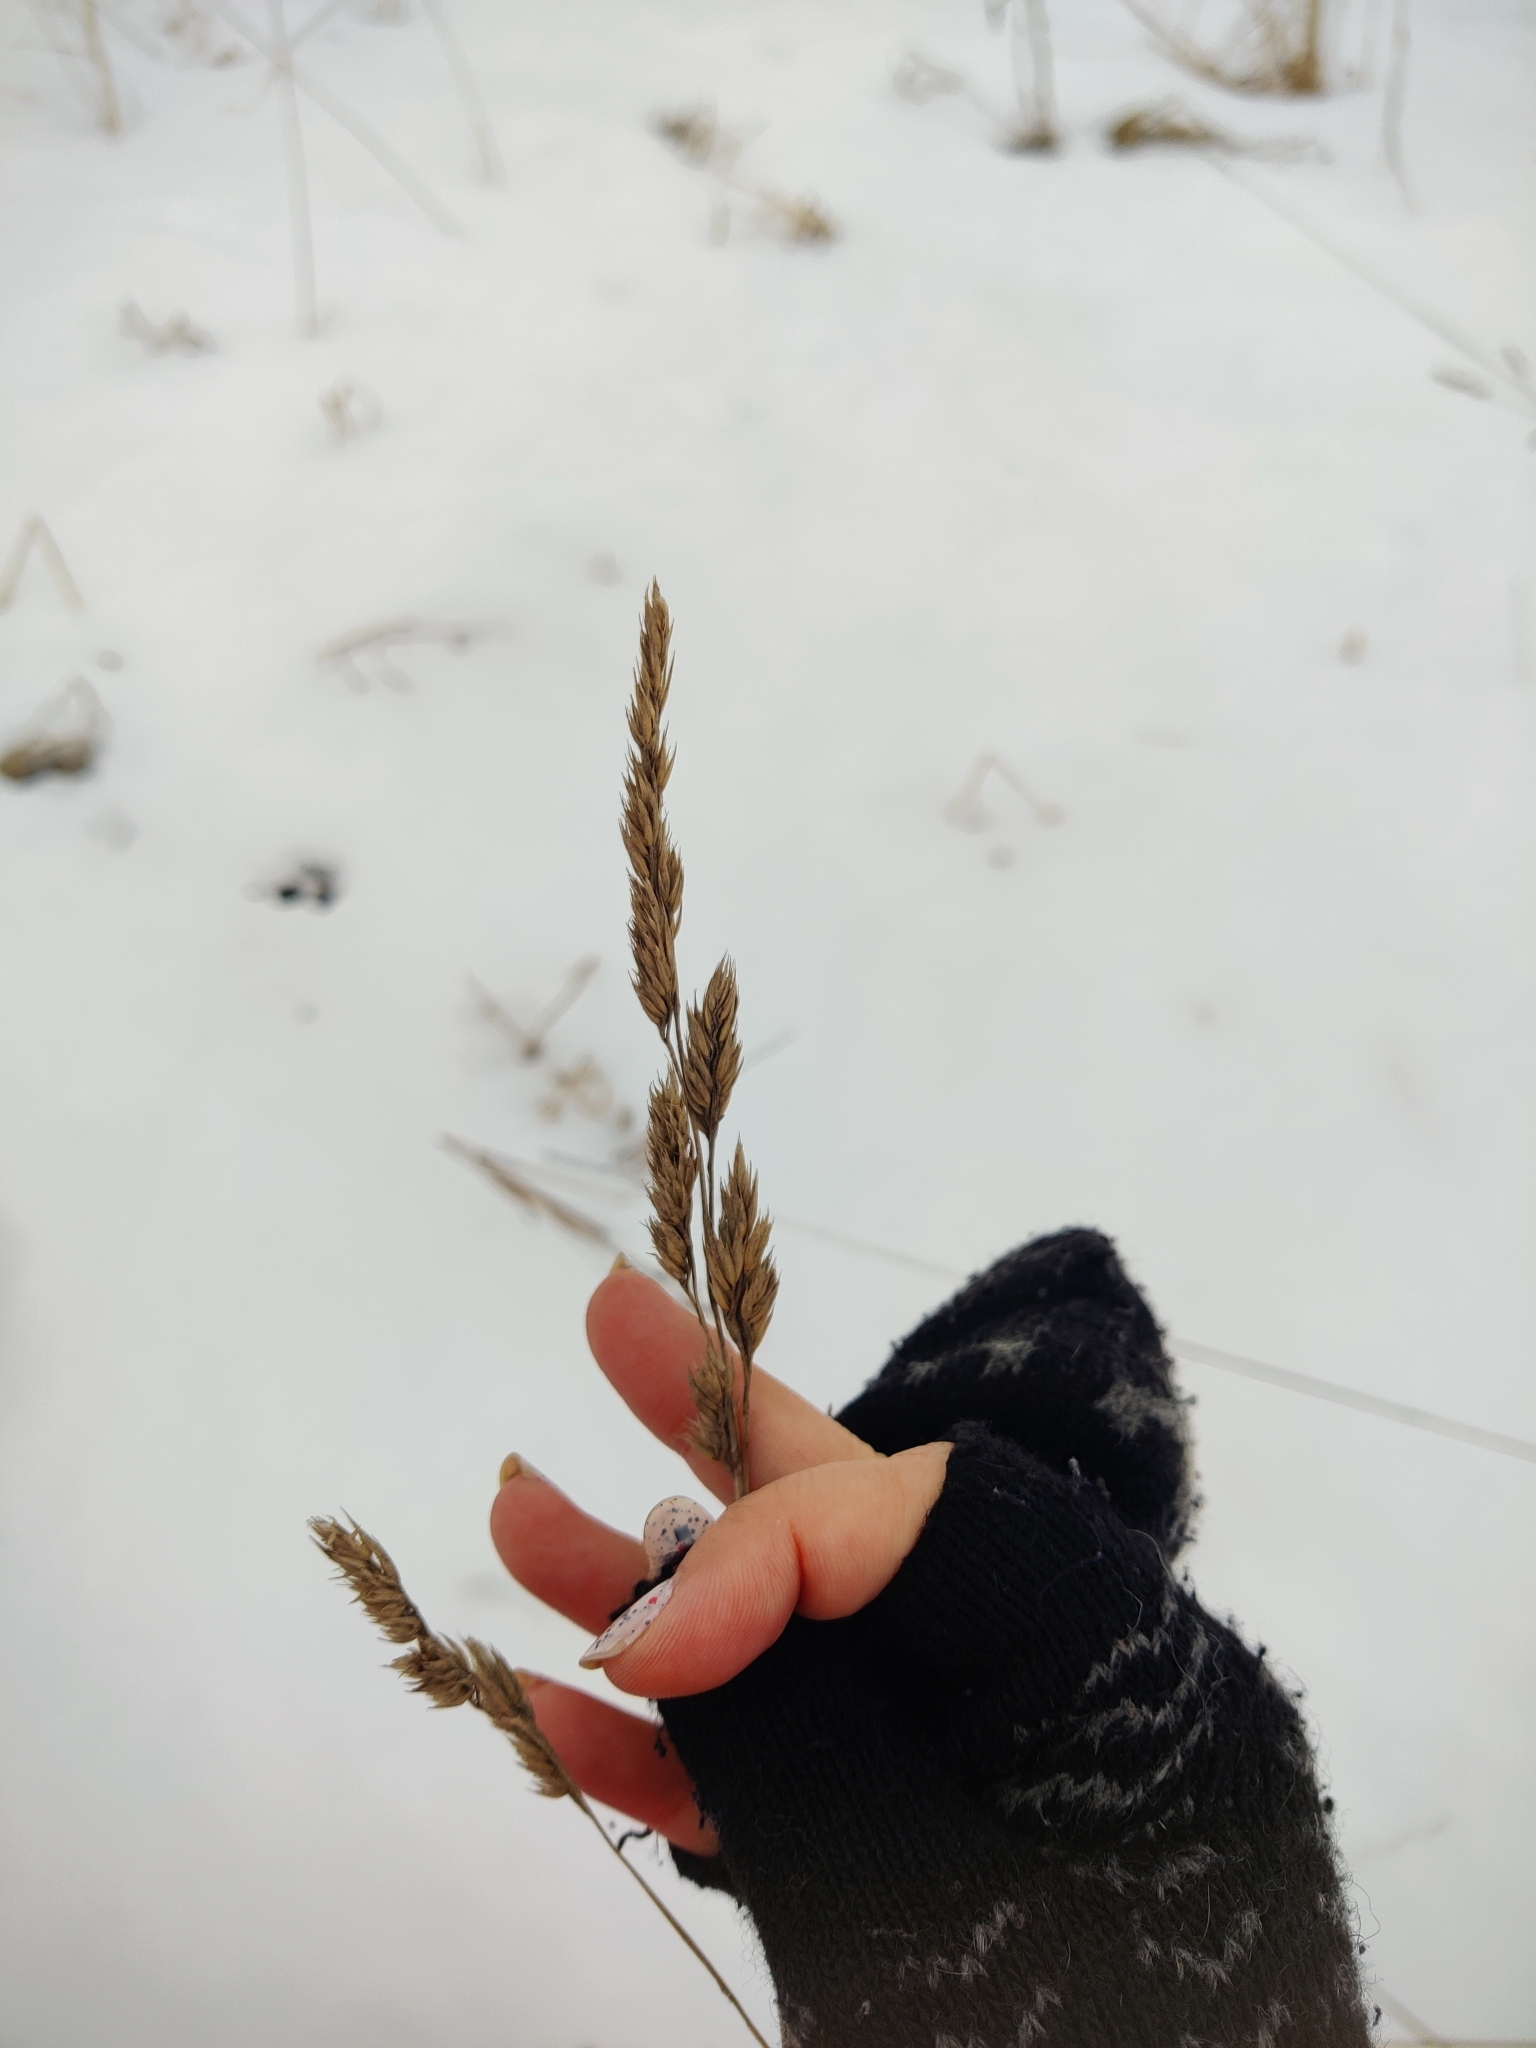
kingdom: Plantae
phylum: Tracheophyta
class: Liliopsida
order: Poales
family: Poaceae
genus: Dactylis
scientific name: Dactylis glomerata
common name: Orchardgrass
